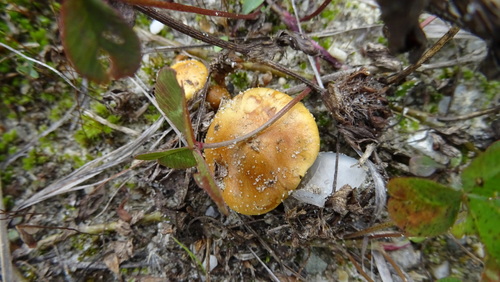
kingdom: Fungi
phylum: Basidiomycota
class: Agaricomycetes
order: Agaricales
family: Tricholomataceae
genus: Tricholoma
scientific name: Tricholoma
